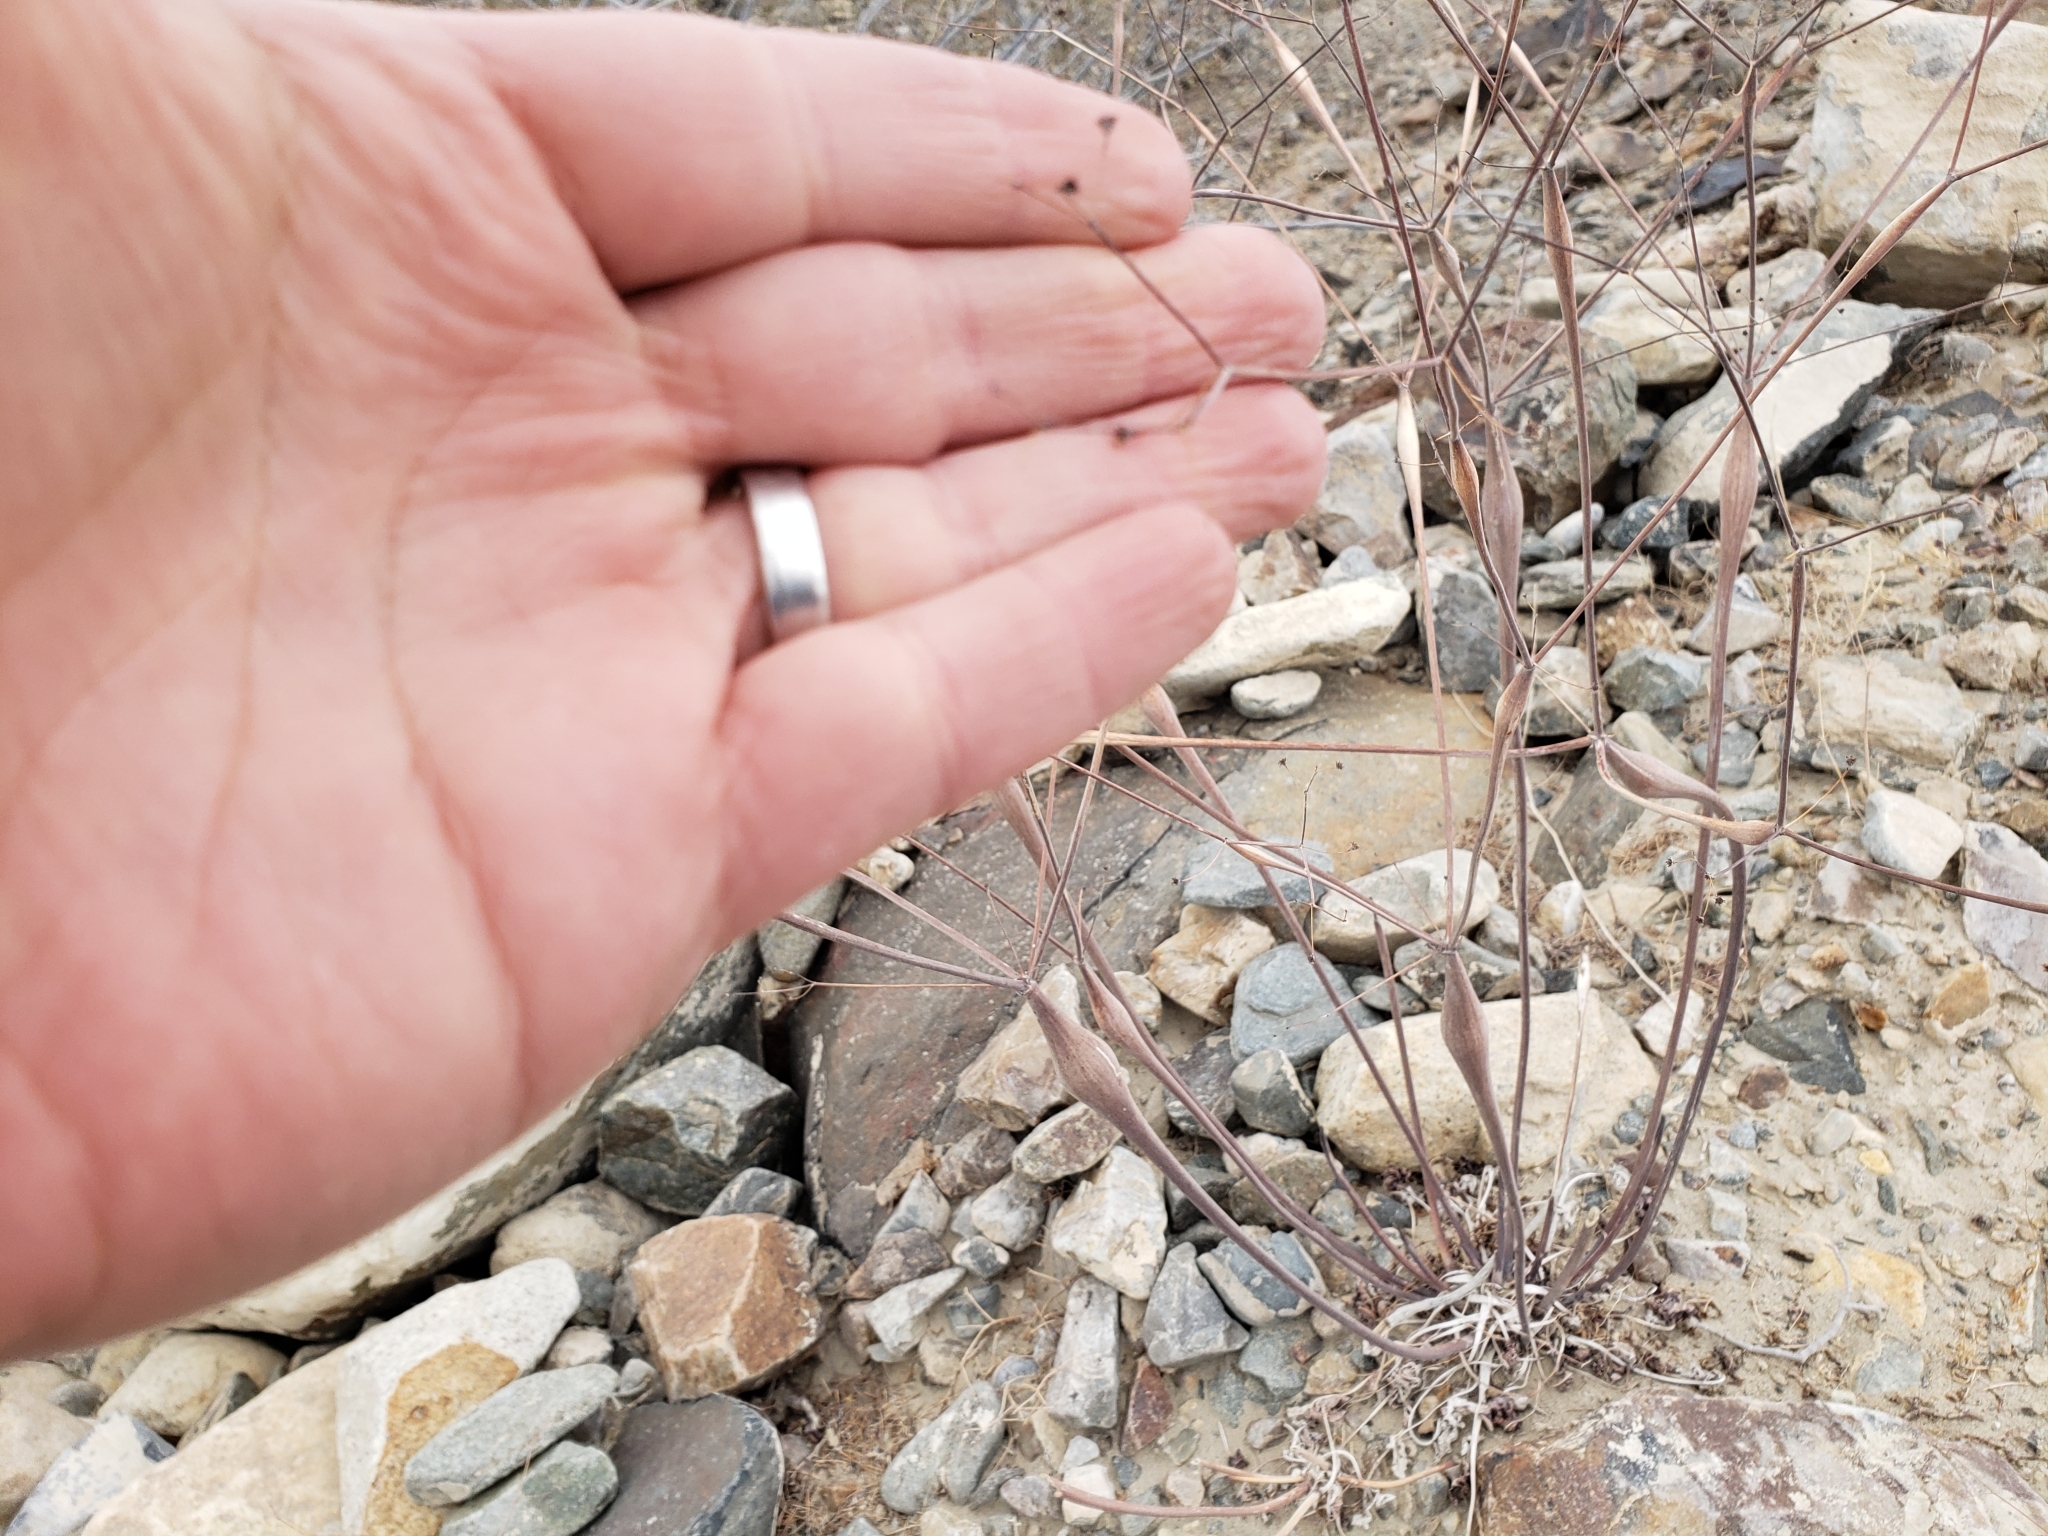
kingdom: Plantae
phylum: Tracheophyta
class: Magnoliopsida
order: Caryophyllales
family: Polygonaceae
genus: Eriogonum
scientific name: Eriogonum inflatum
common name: Desert trumpet
